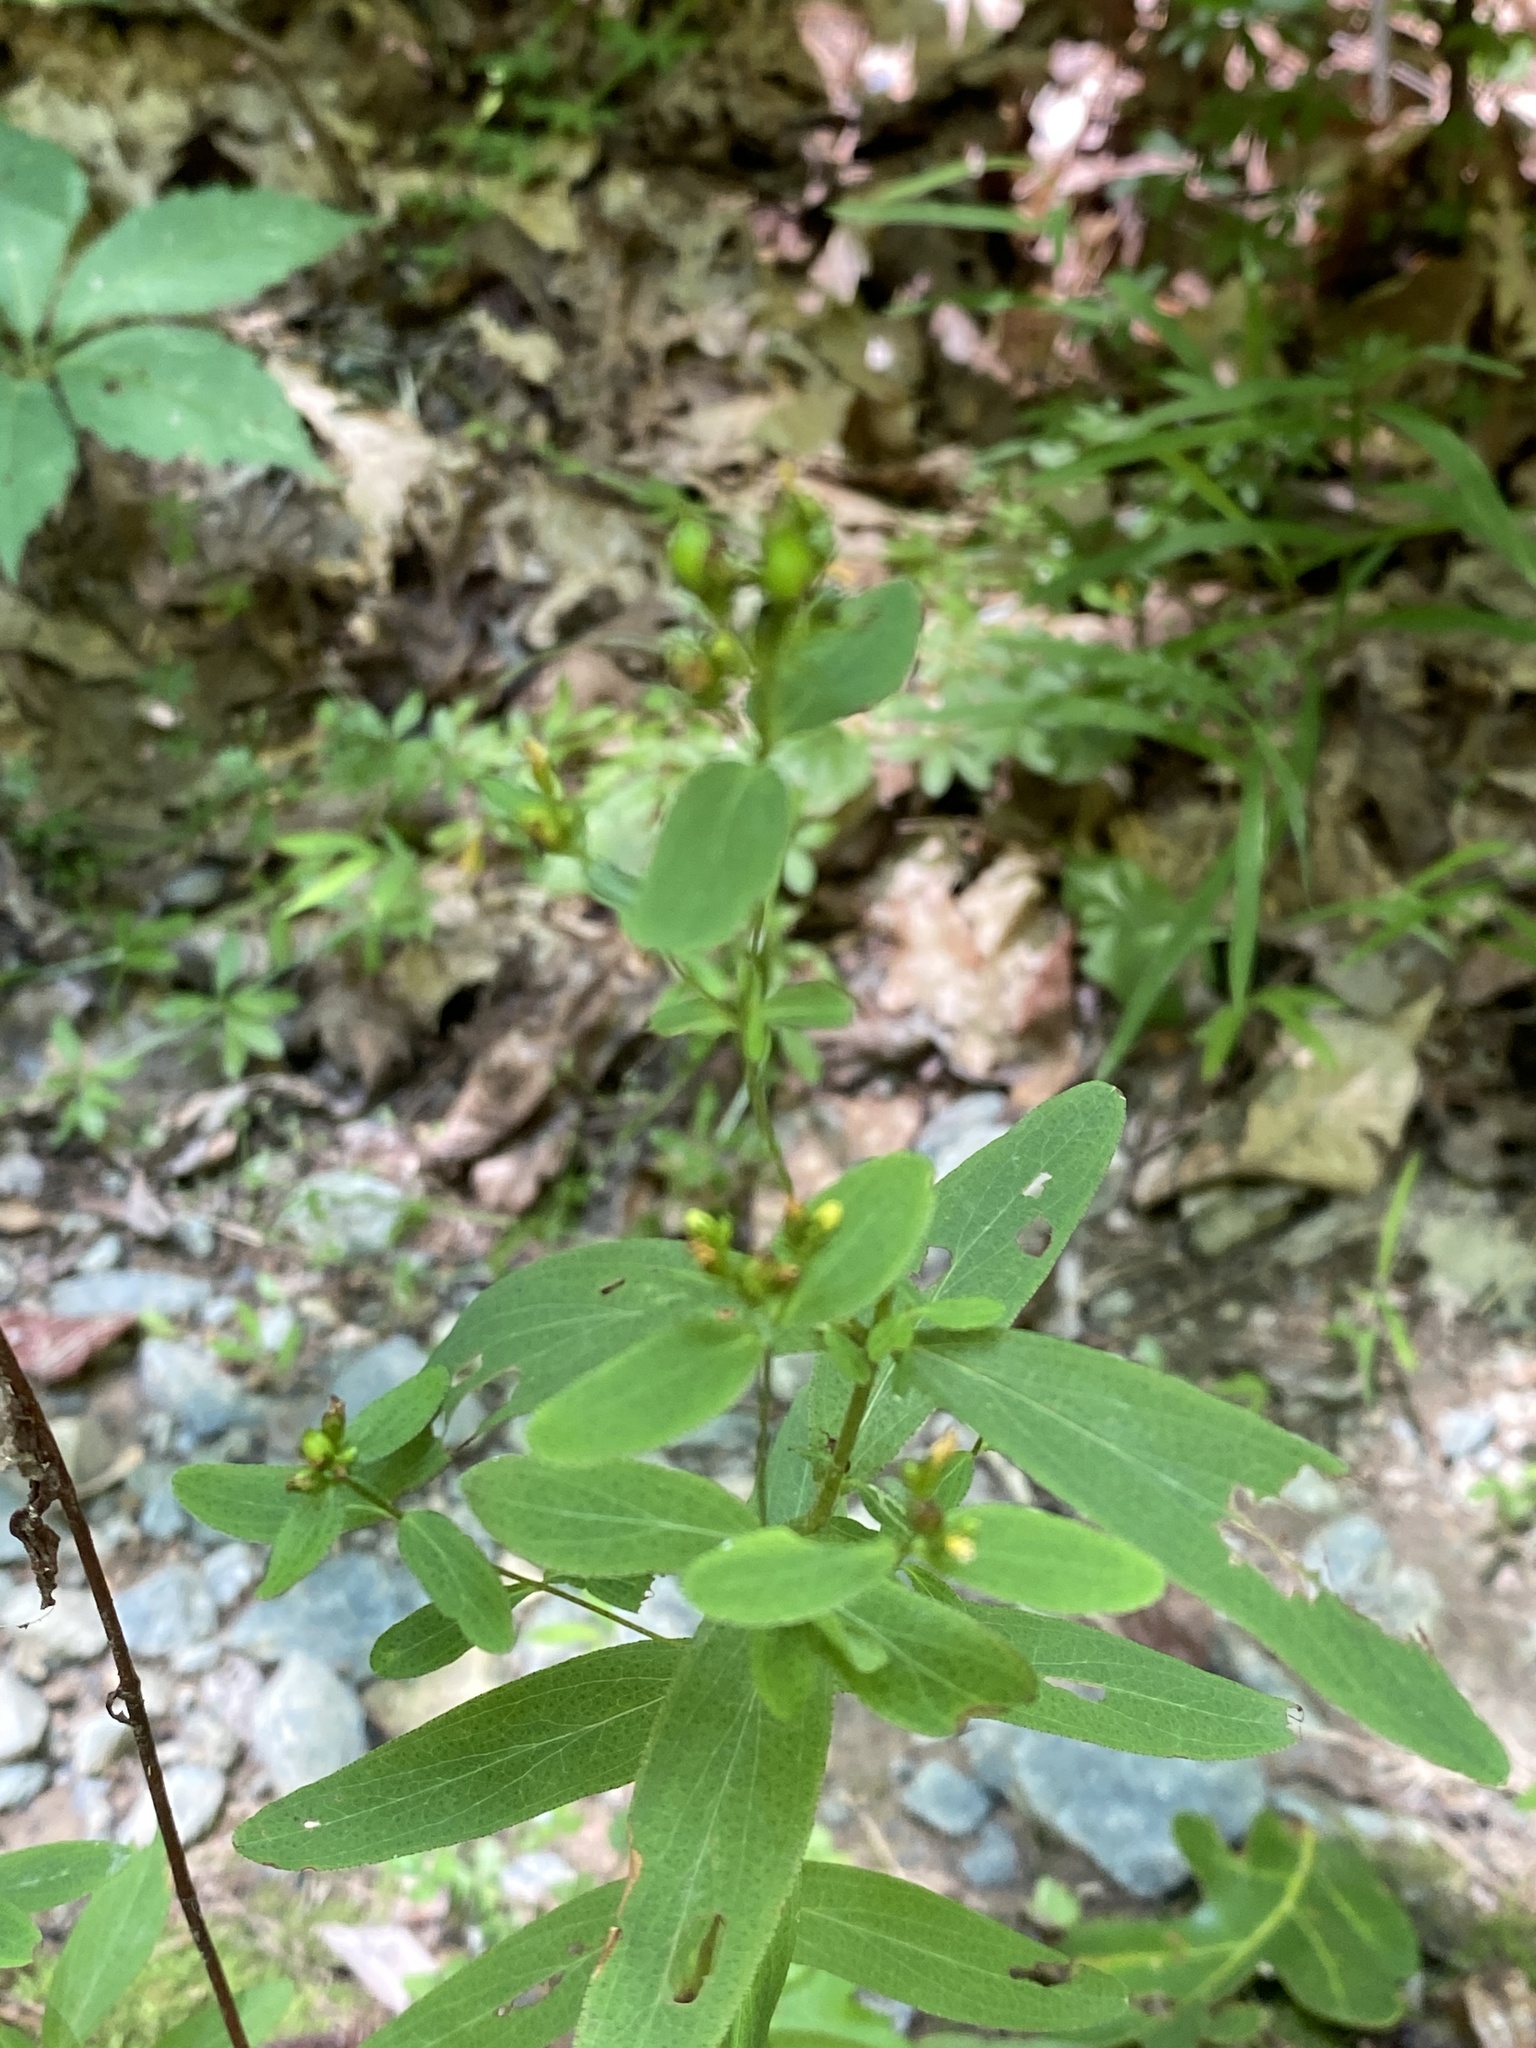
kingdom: Plantae
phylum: Tracheophyta
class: Magnoliopsida
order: Malpighiales
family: Hypericaceae
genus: Hypericum
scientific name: Hypericum punctatum
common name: Spotted st. john's-wort
